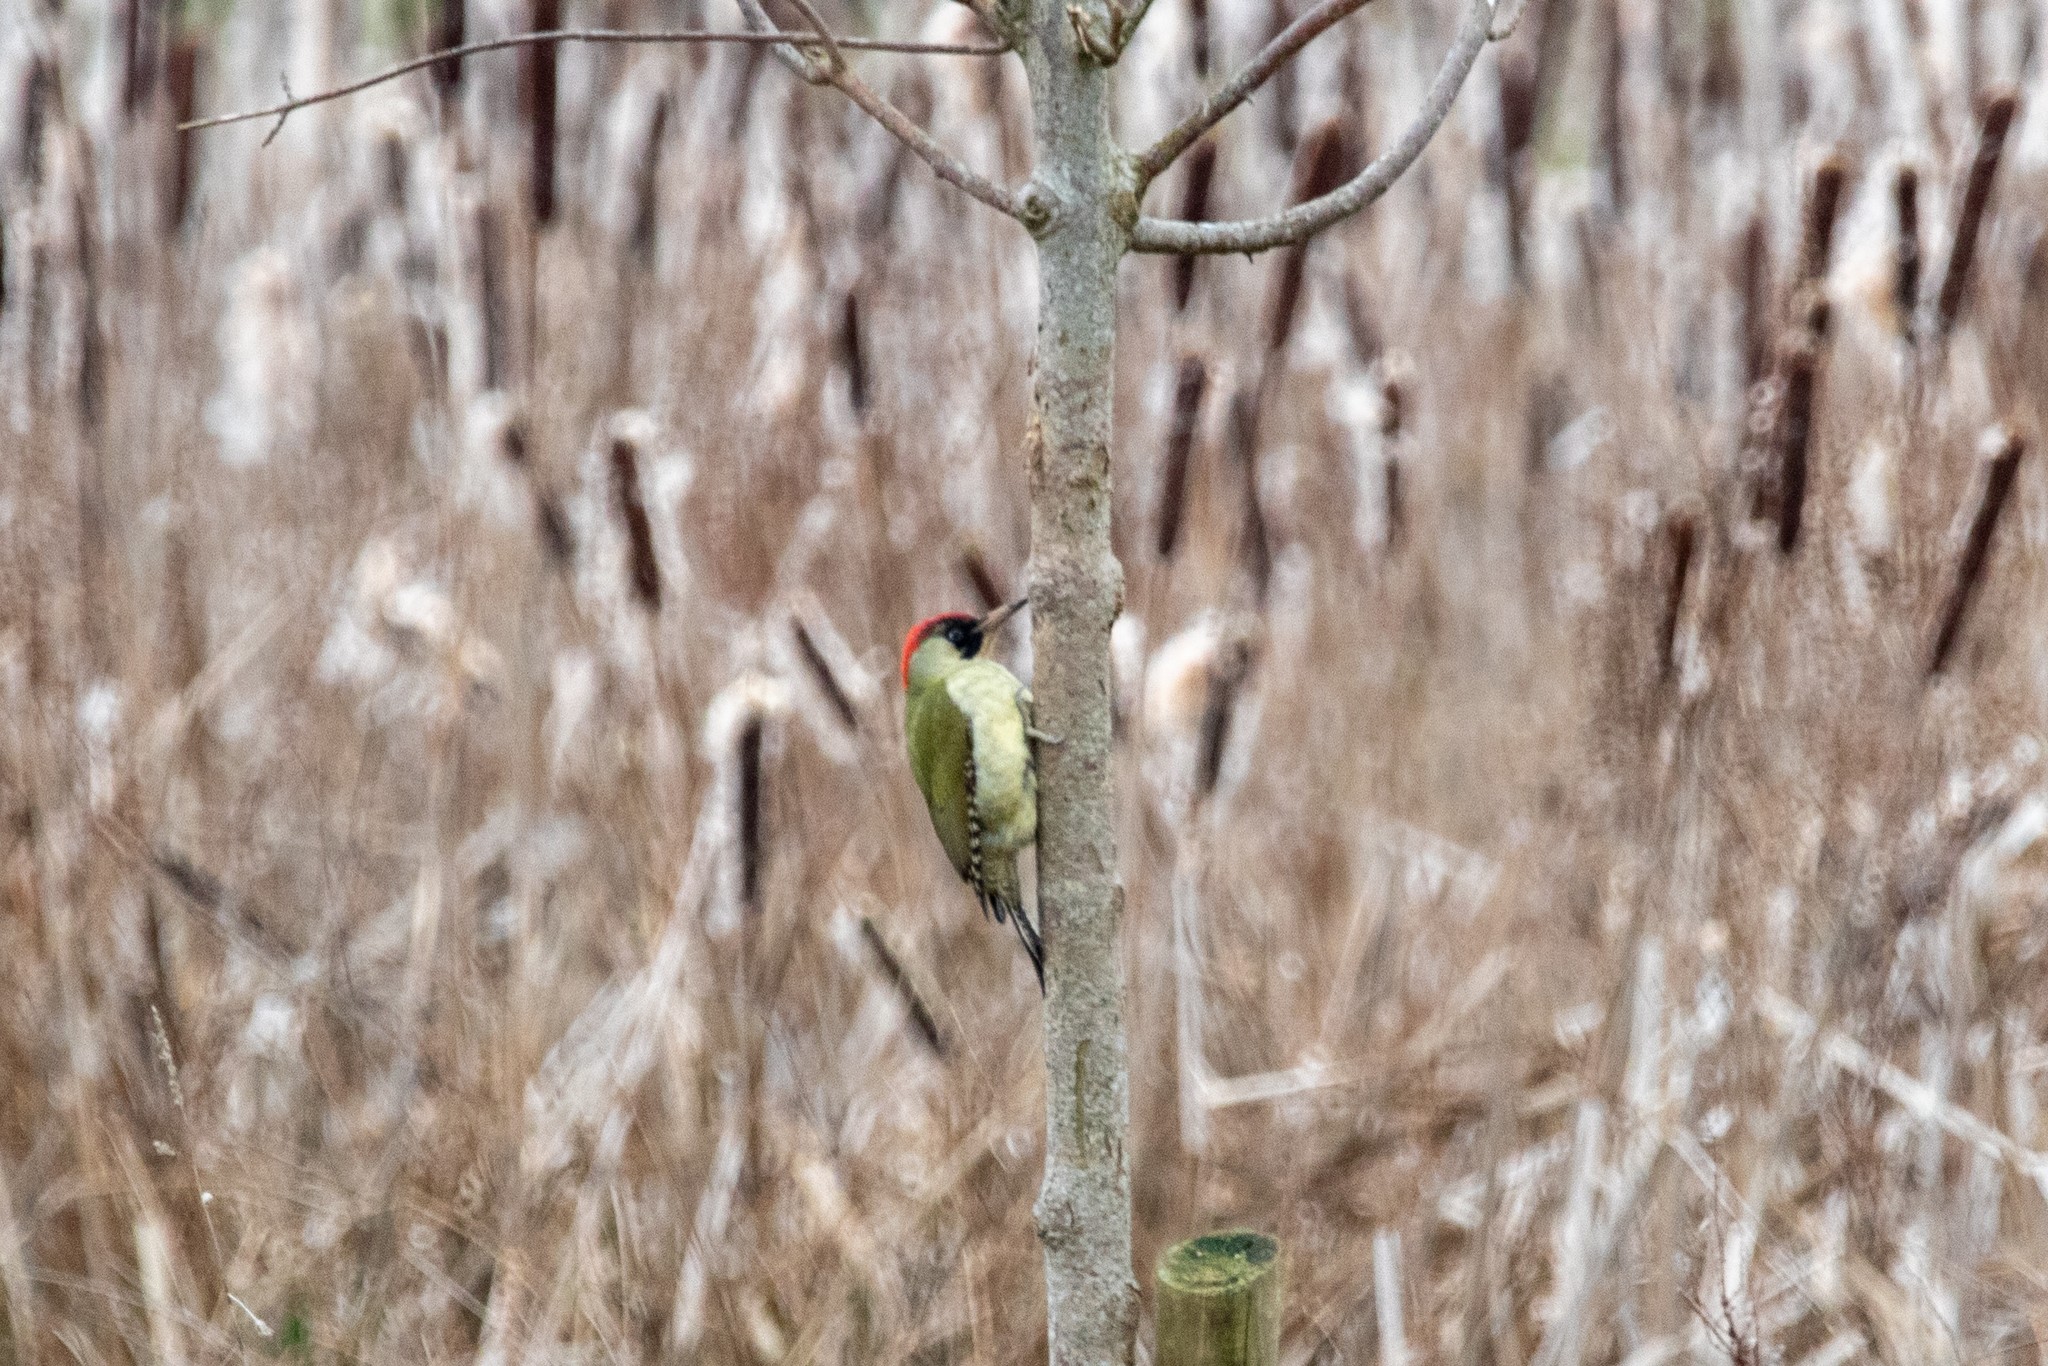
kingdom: Animalia
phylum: Chordata
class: Aves
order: Piciformes
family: Picidae
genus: Picus
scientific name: Picus viridis
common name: European green woodpecker
